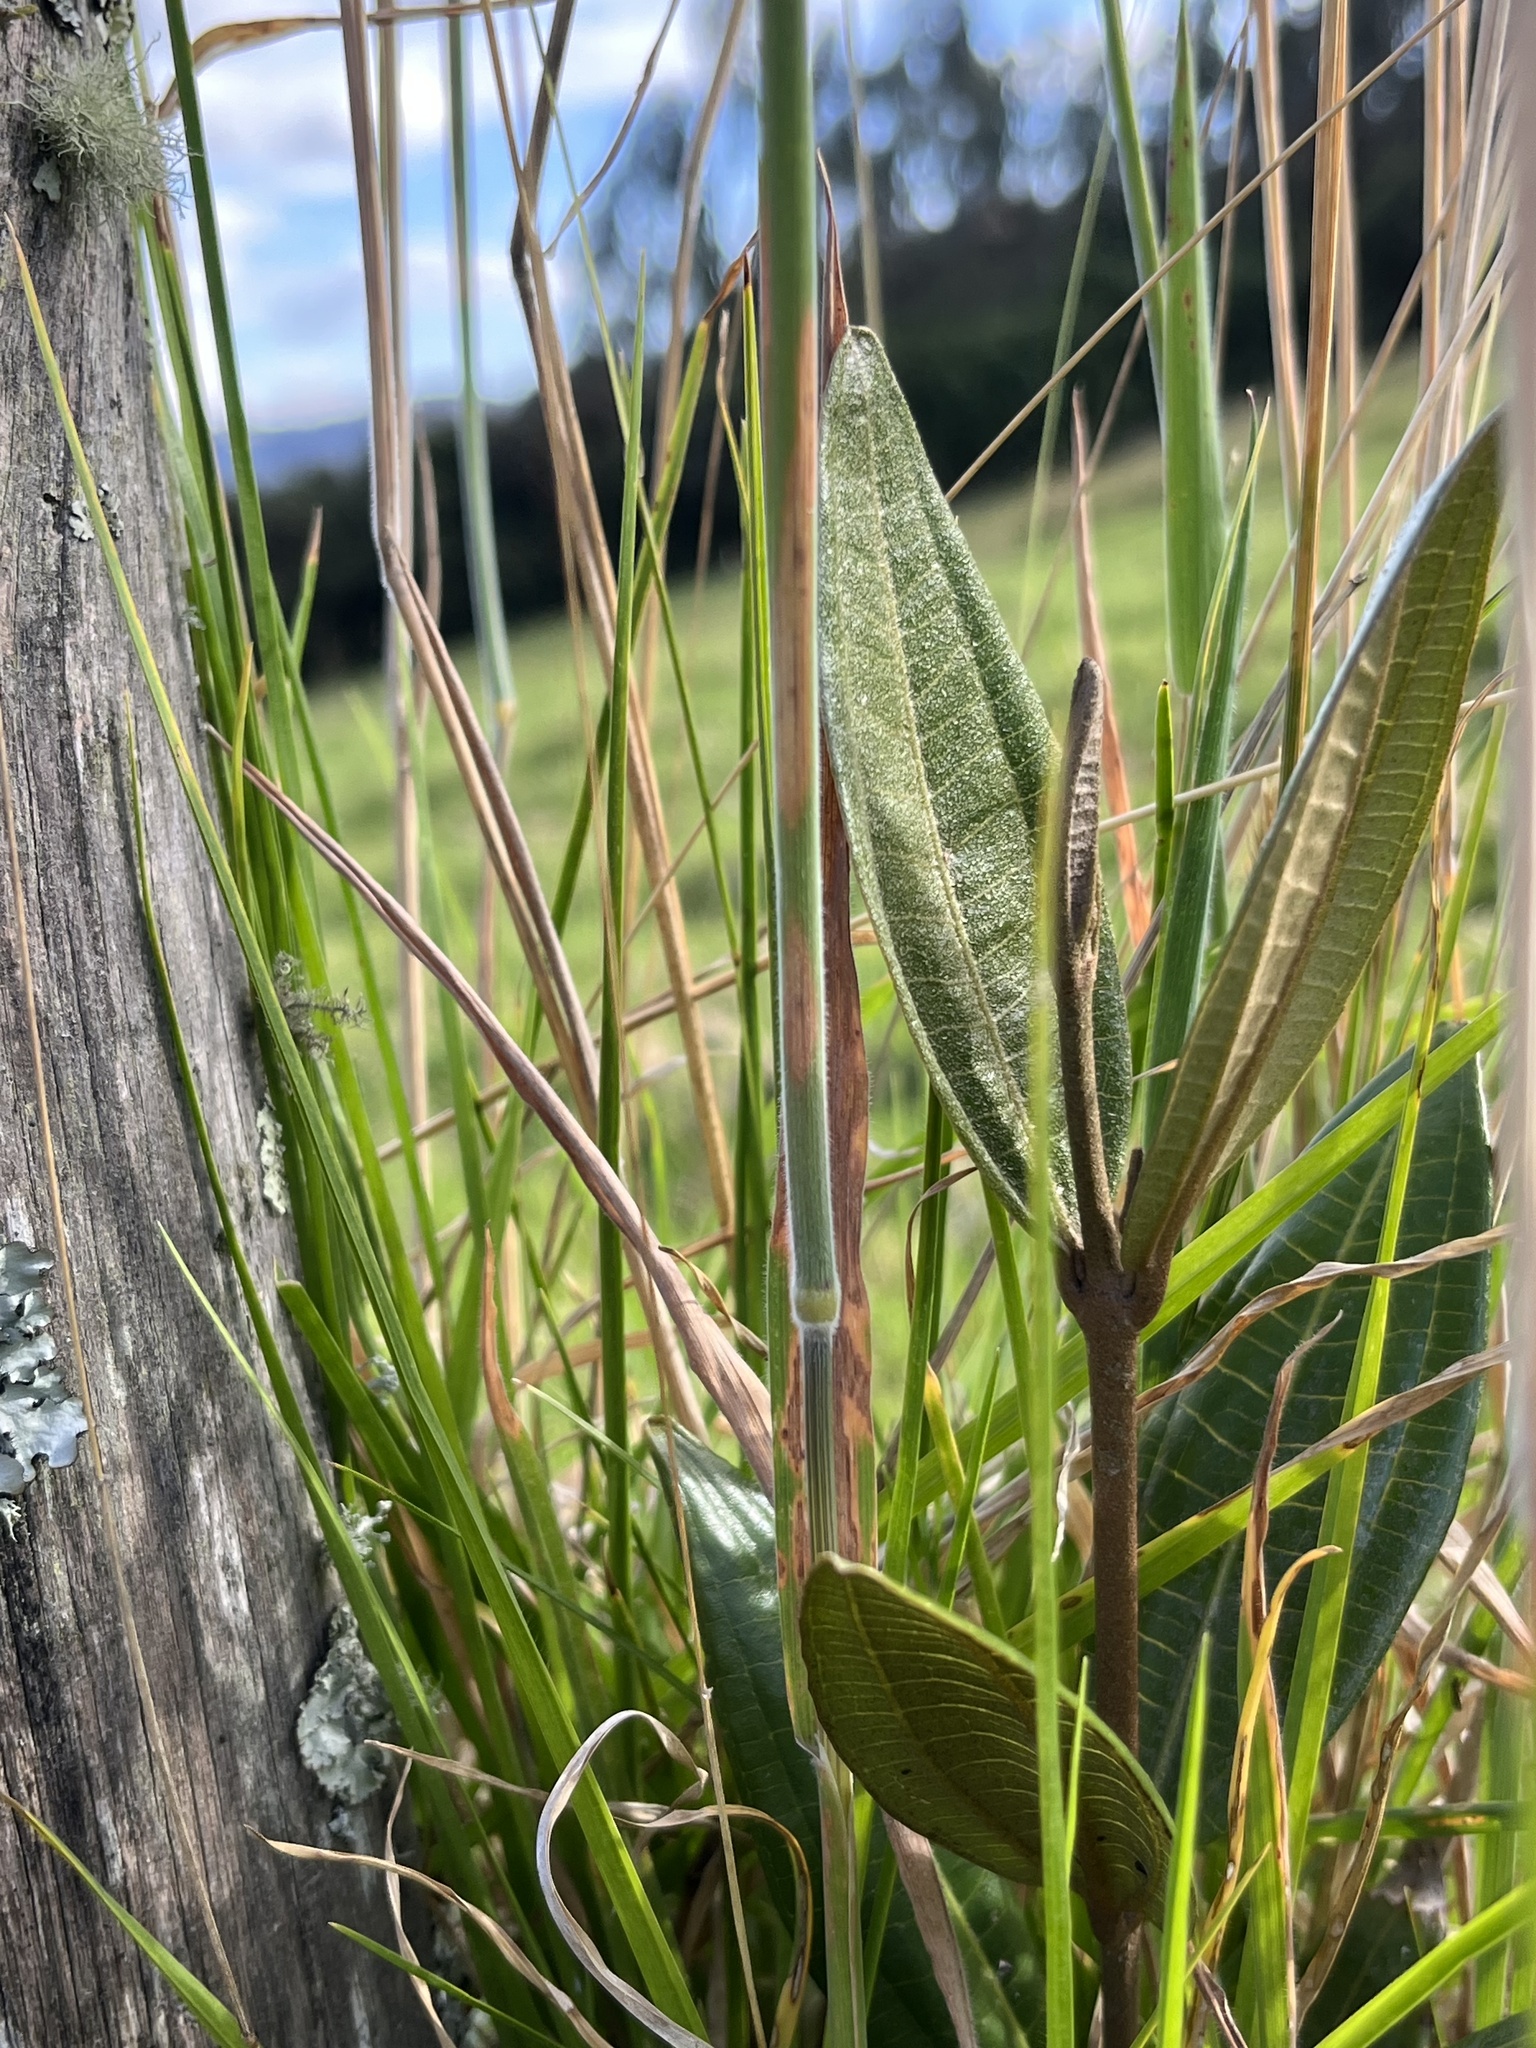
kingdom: Plantae
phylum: Tracheophyta
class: Magnoliopsida
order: Myrtales
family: Melastomataceae
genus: Miconia
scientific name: Miconia squamulosa
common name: Squamulose maya
